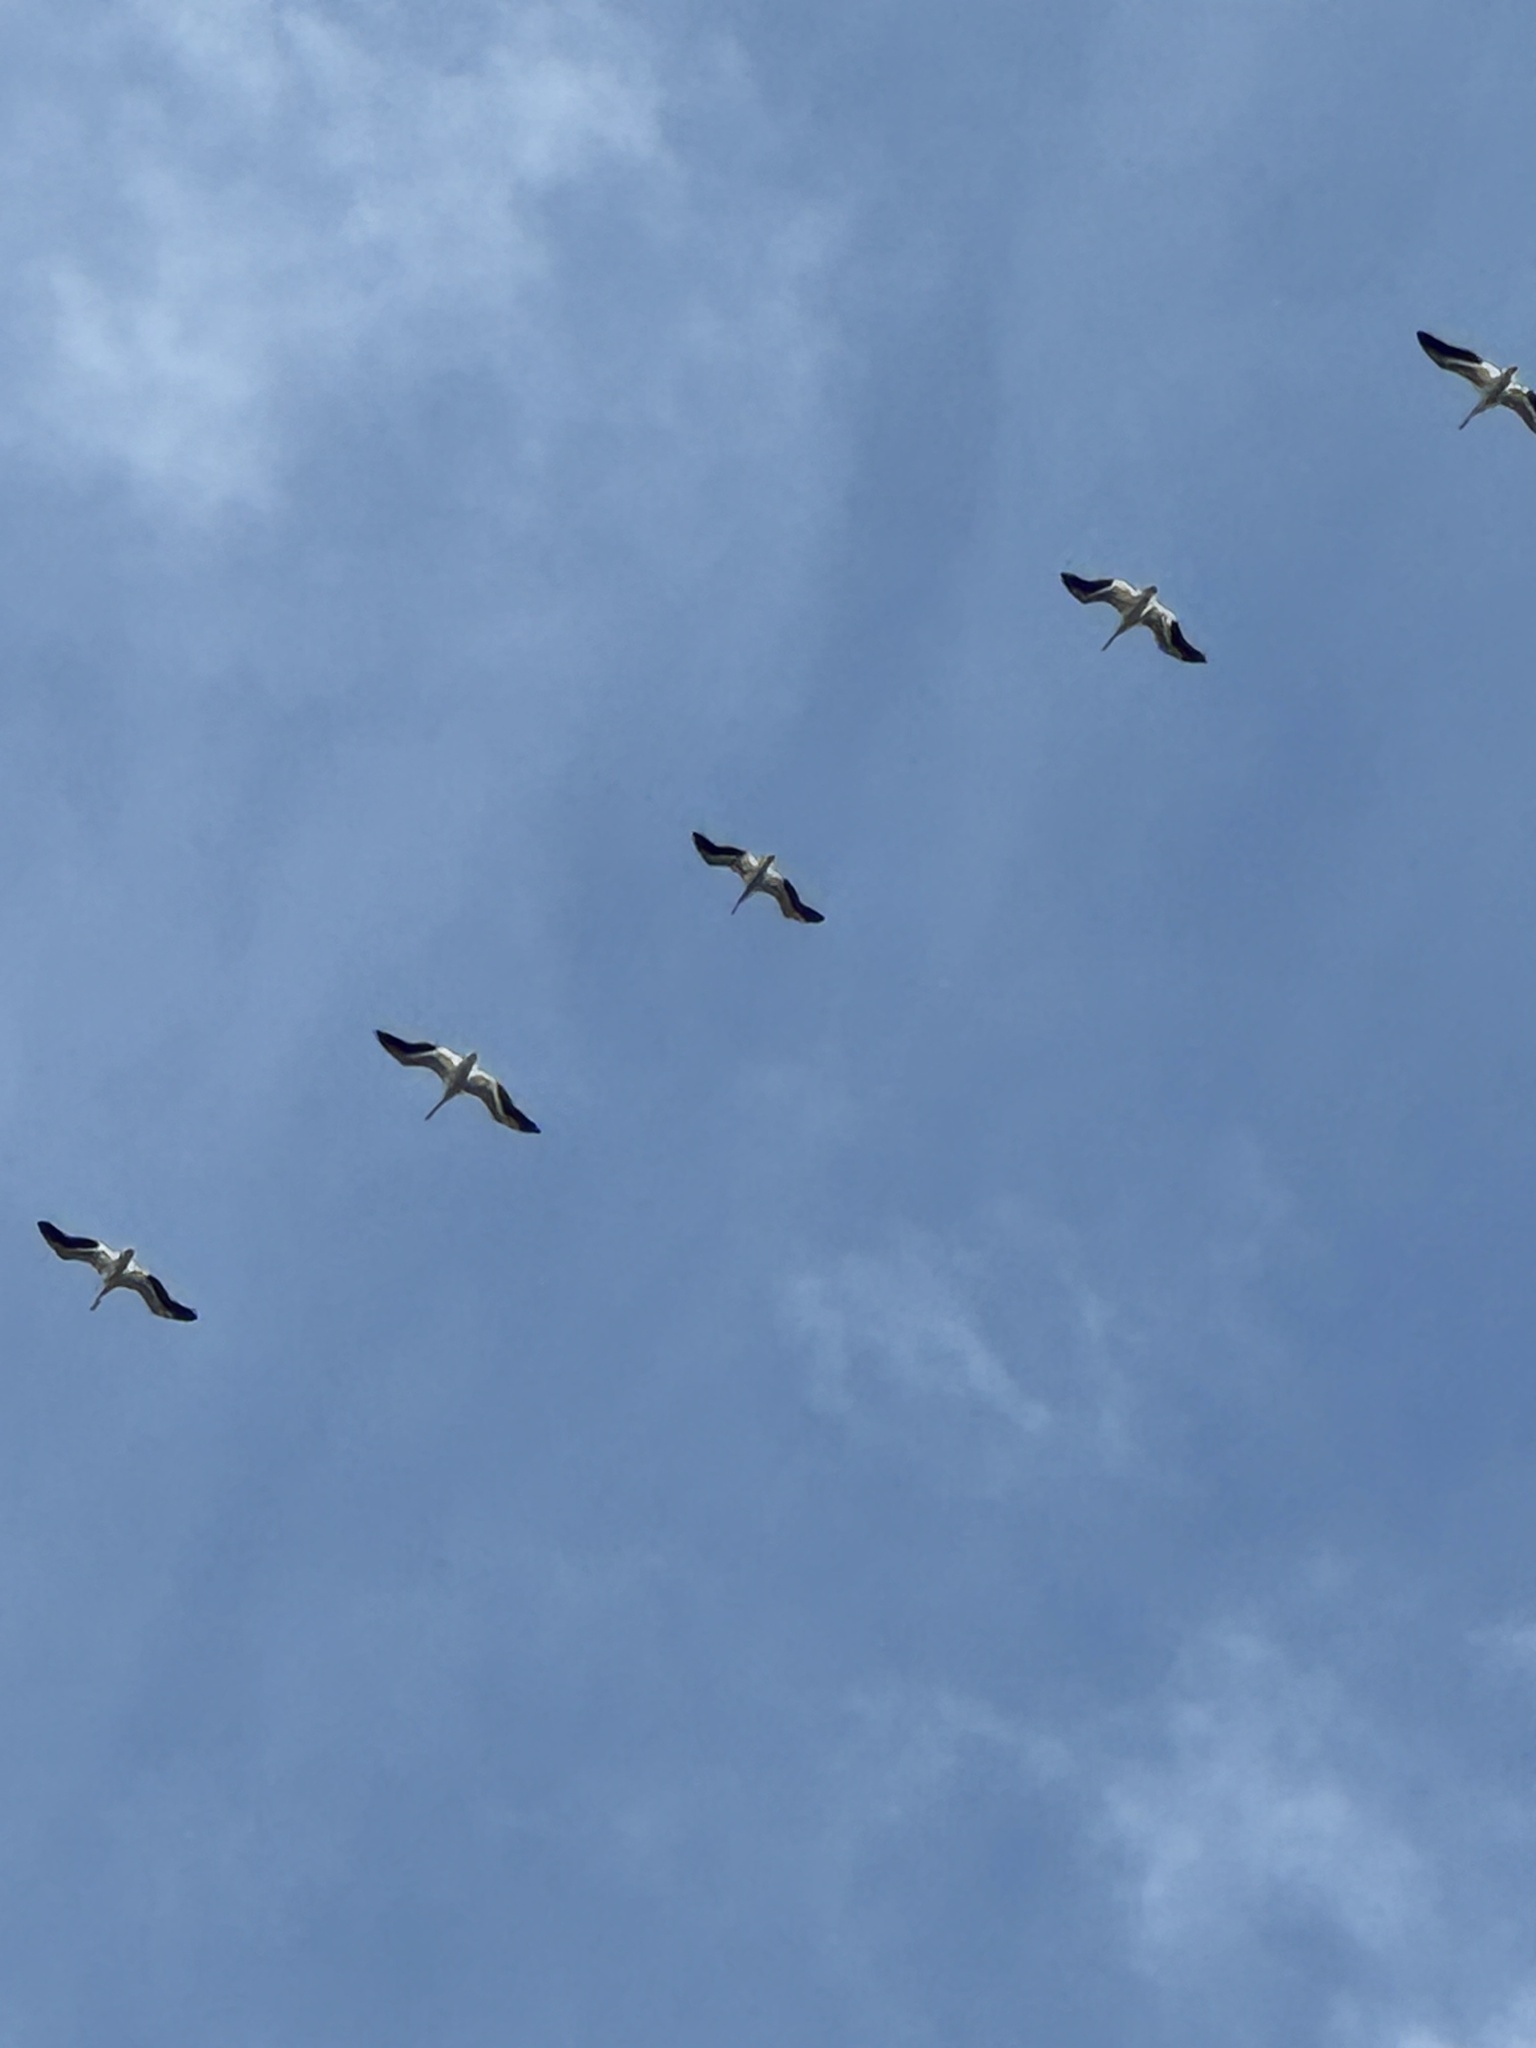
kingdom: Animalia
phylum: Chordata
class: Aves
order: Pelecaniformes
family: Pelecanidae
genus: Pelecanus
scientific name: Pelecanus erythrorhynchos
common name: American white pelican
